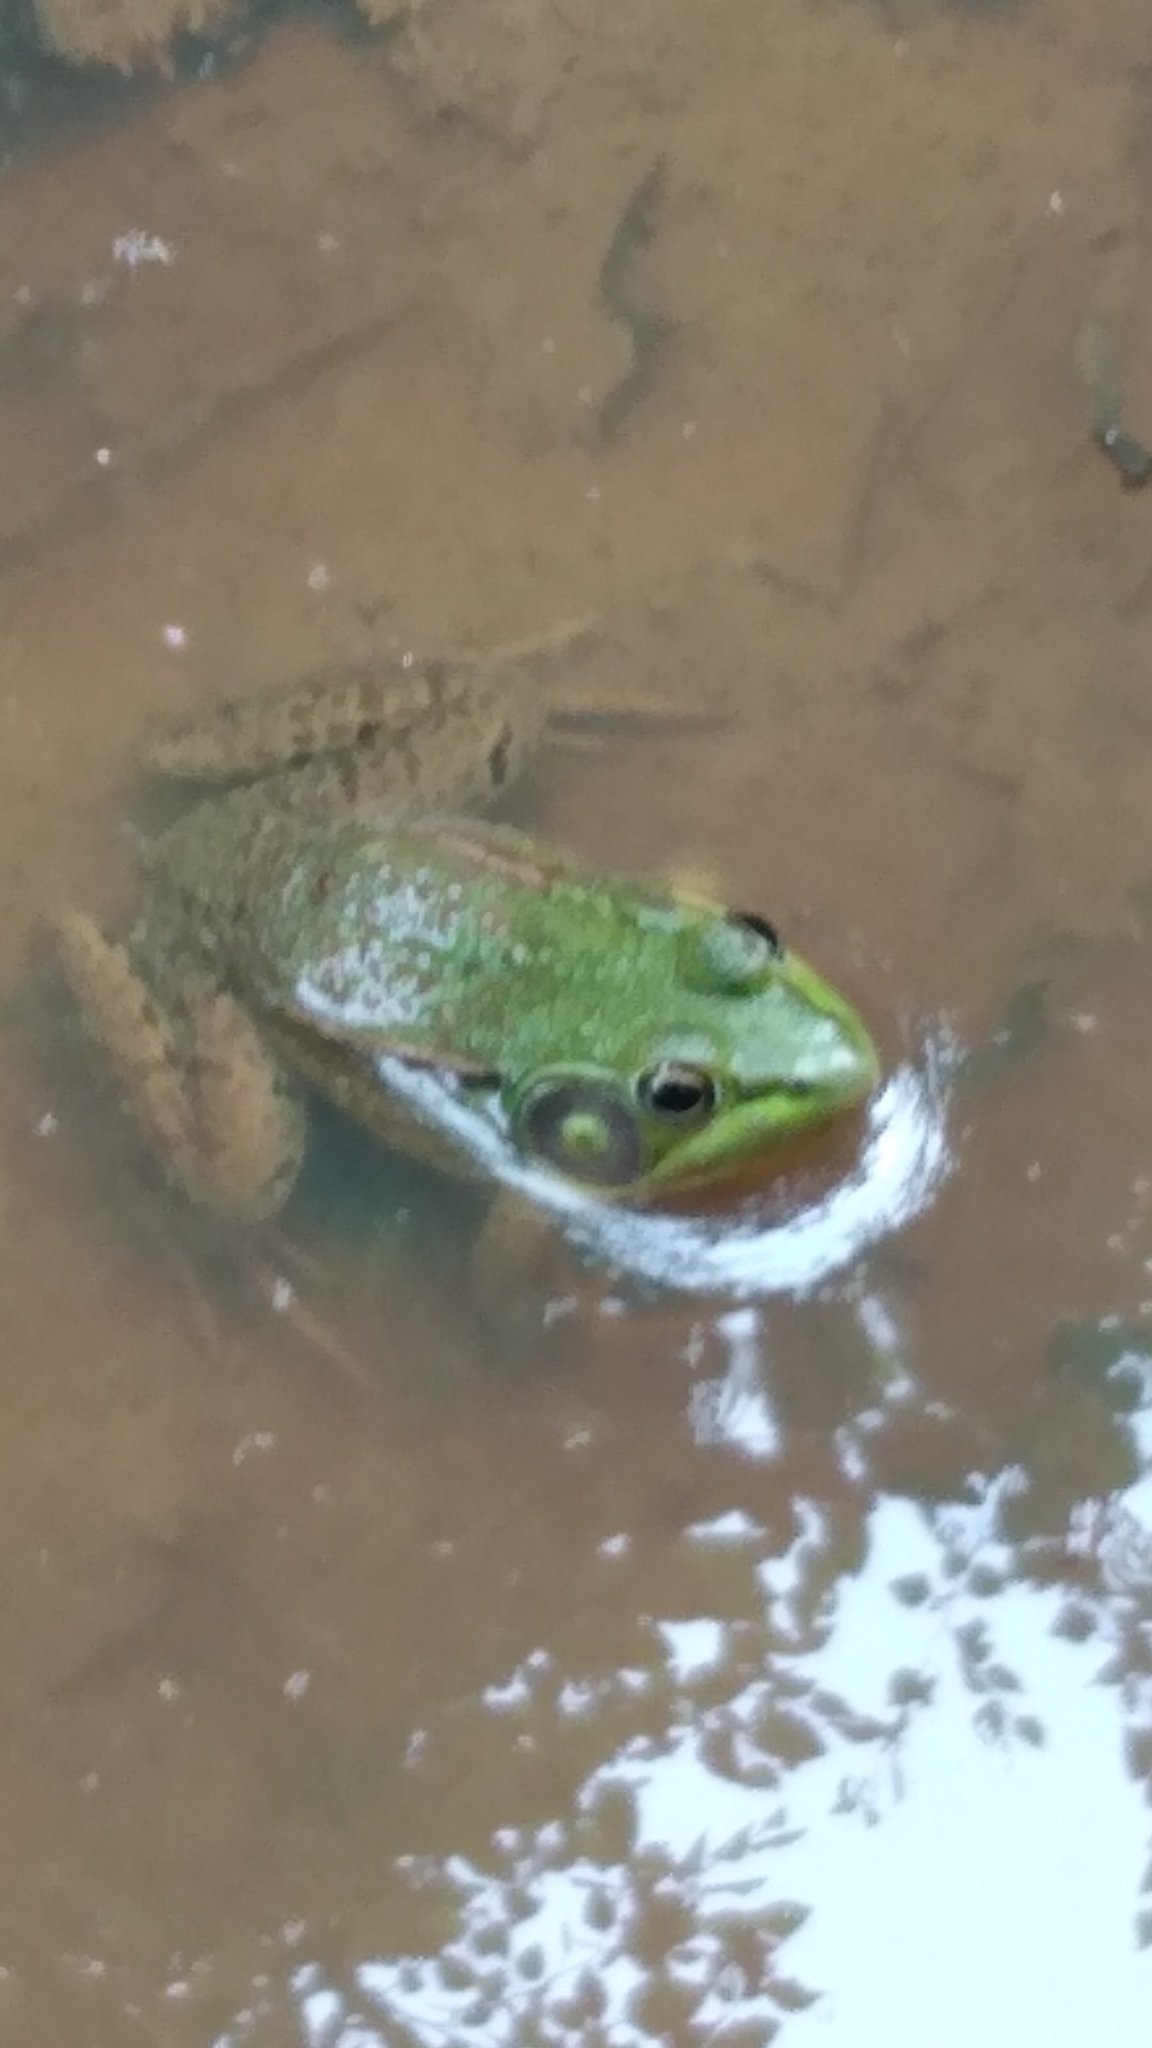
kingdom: Animalia
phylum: Chordata
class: Amphibia
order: Anura
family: Ranidae
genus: Lithobates
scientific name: Lithobates clamitans
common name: Green frog
